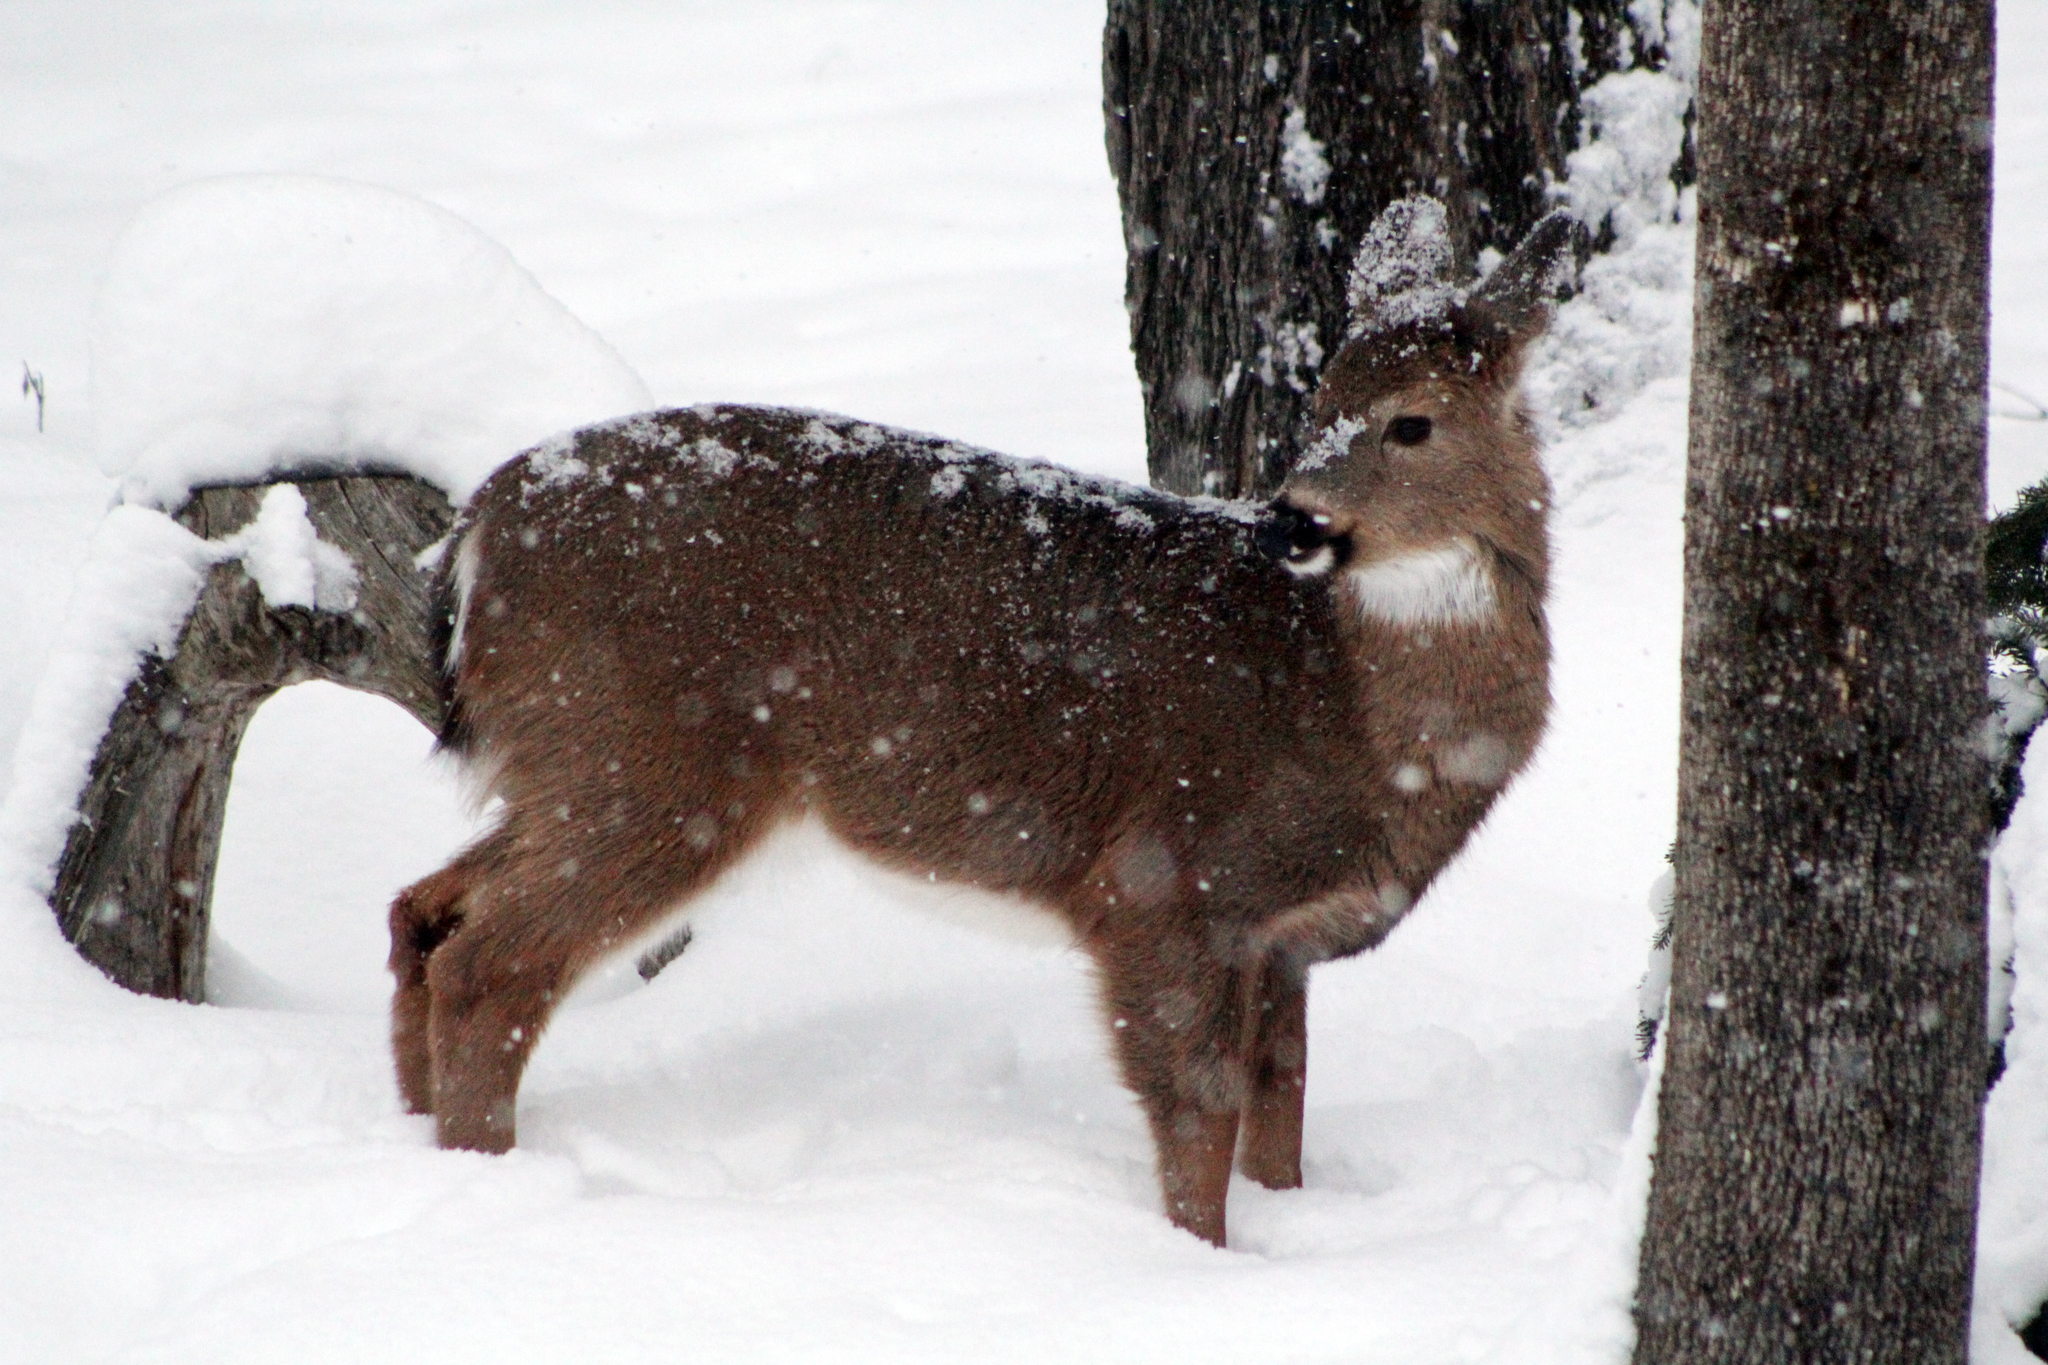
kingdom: Animalia
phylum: Chordata
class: Mammalia
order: Artiodactyla
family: Cervidae
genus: Odocoileus
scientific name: Odocoileus virginianus
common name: White-tailed deer
